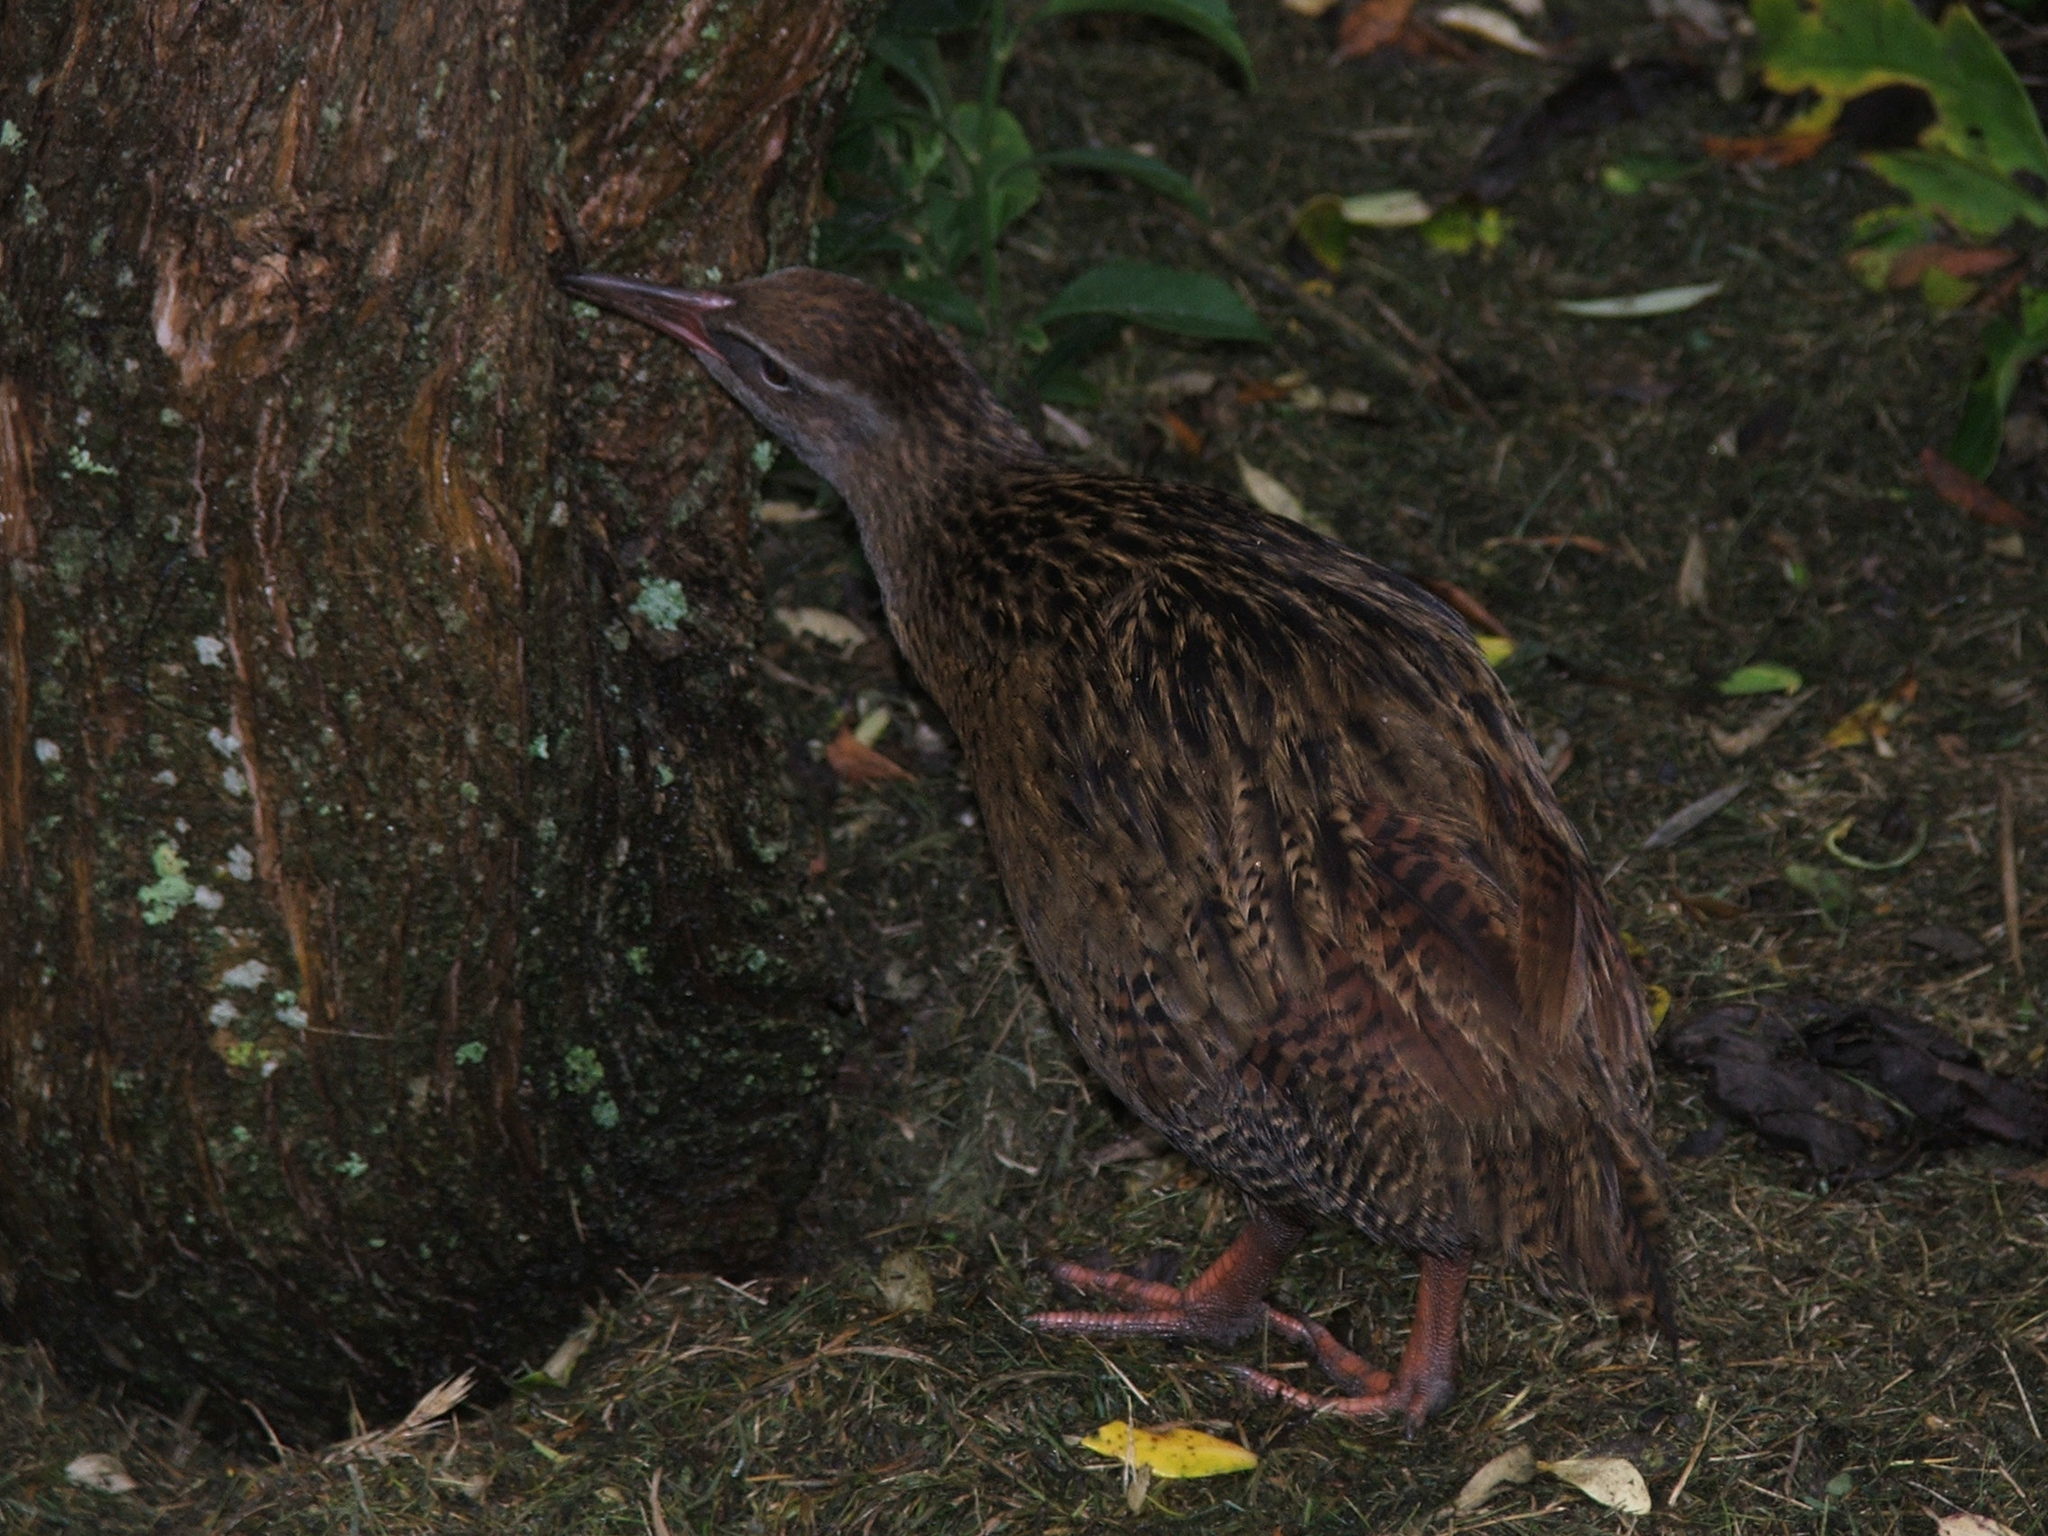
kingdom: Animalia
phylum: Chordata
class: Aves
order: Gruiformes
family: Rallidae
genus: Gallirallus
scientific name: Gallirallus australis
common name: Weka
